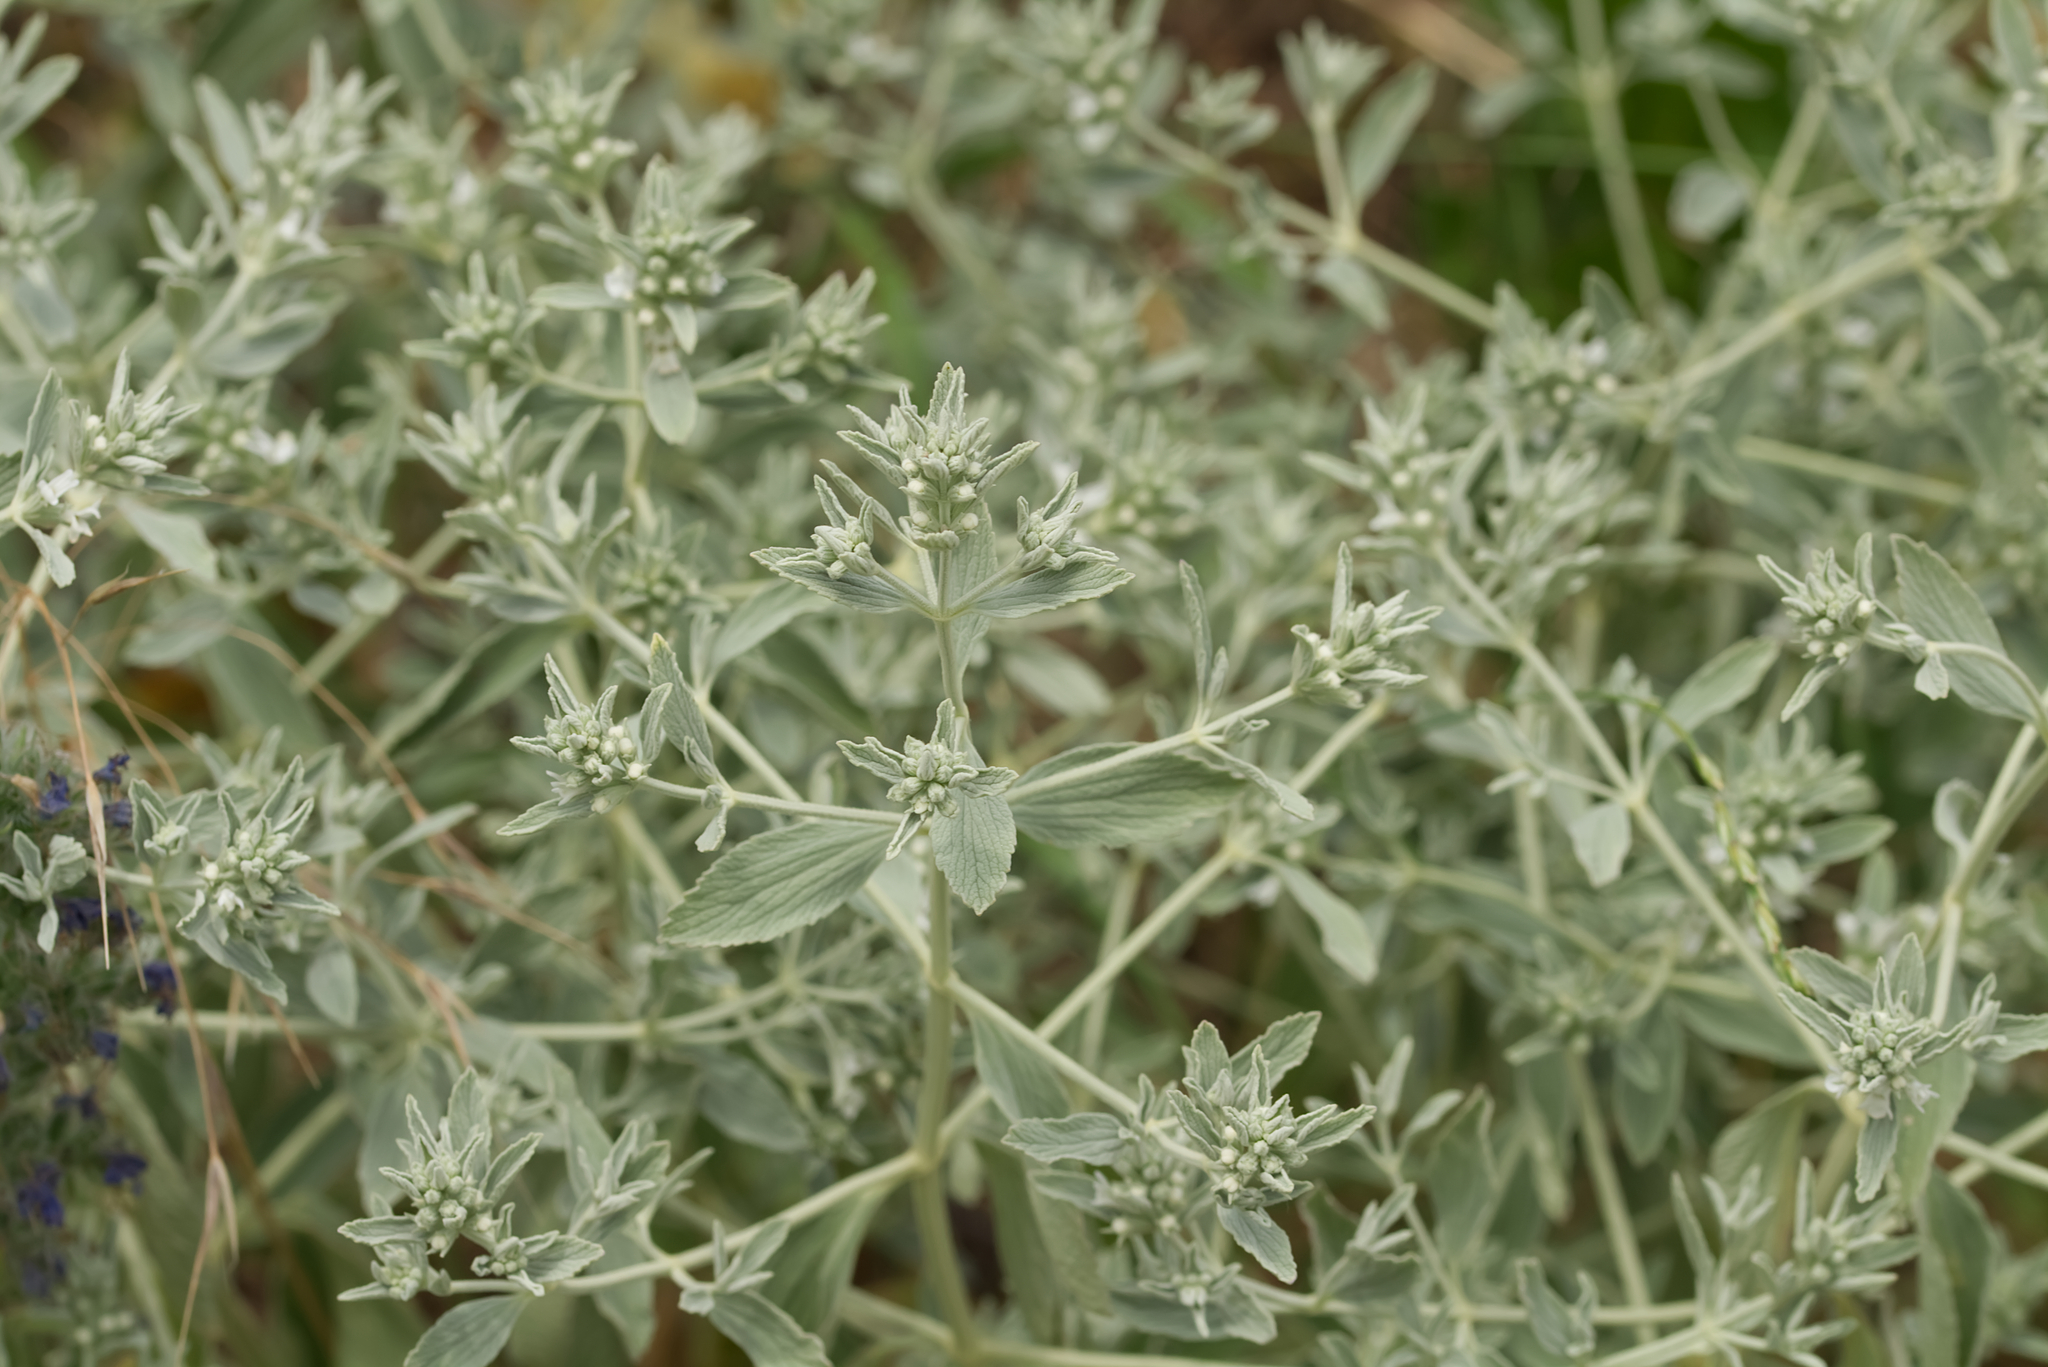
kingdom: Plantae
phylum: Tracheophyta
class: Magnoliopsida
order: Lamiales
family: Lamiaceae
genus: Marrubium
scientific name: Marrubium peregrinum
